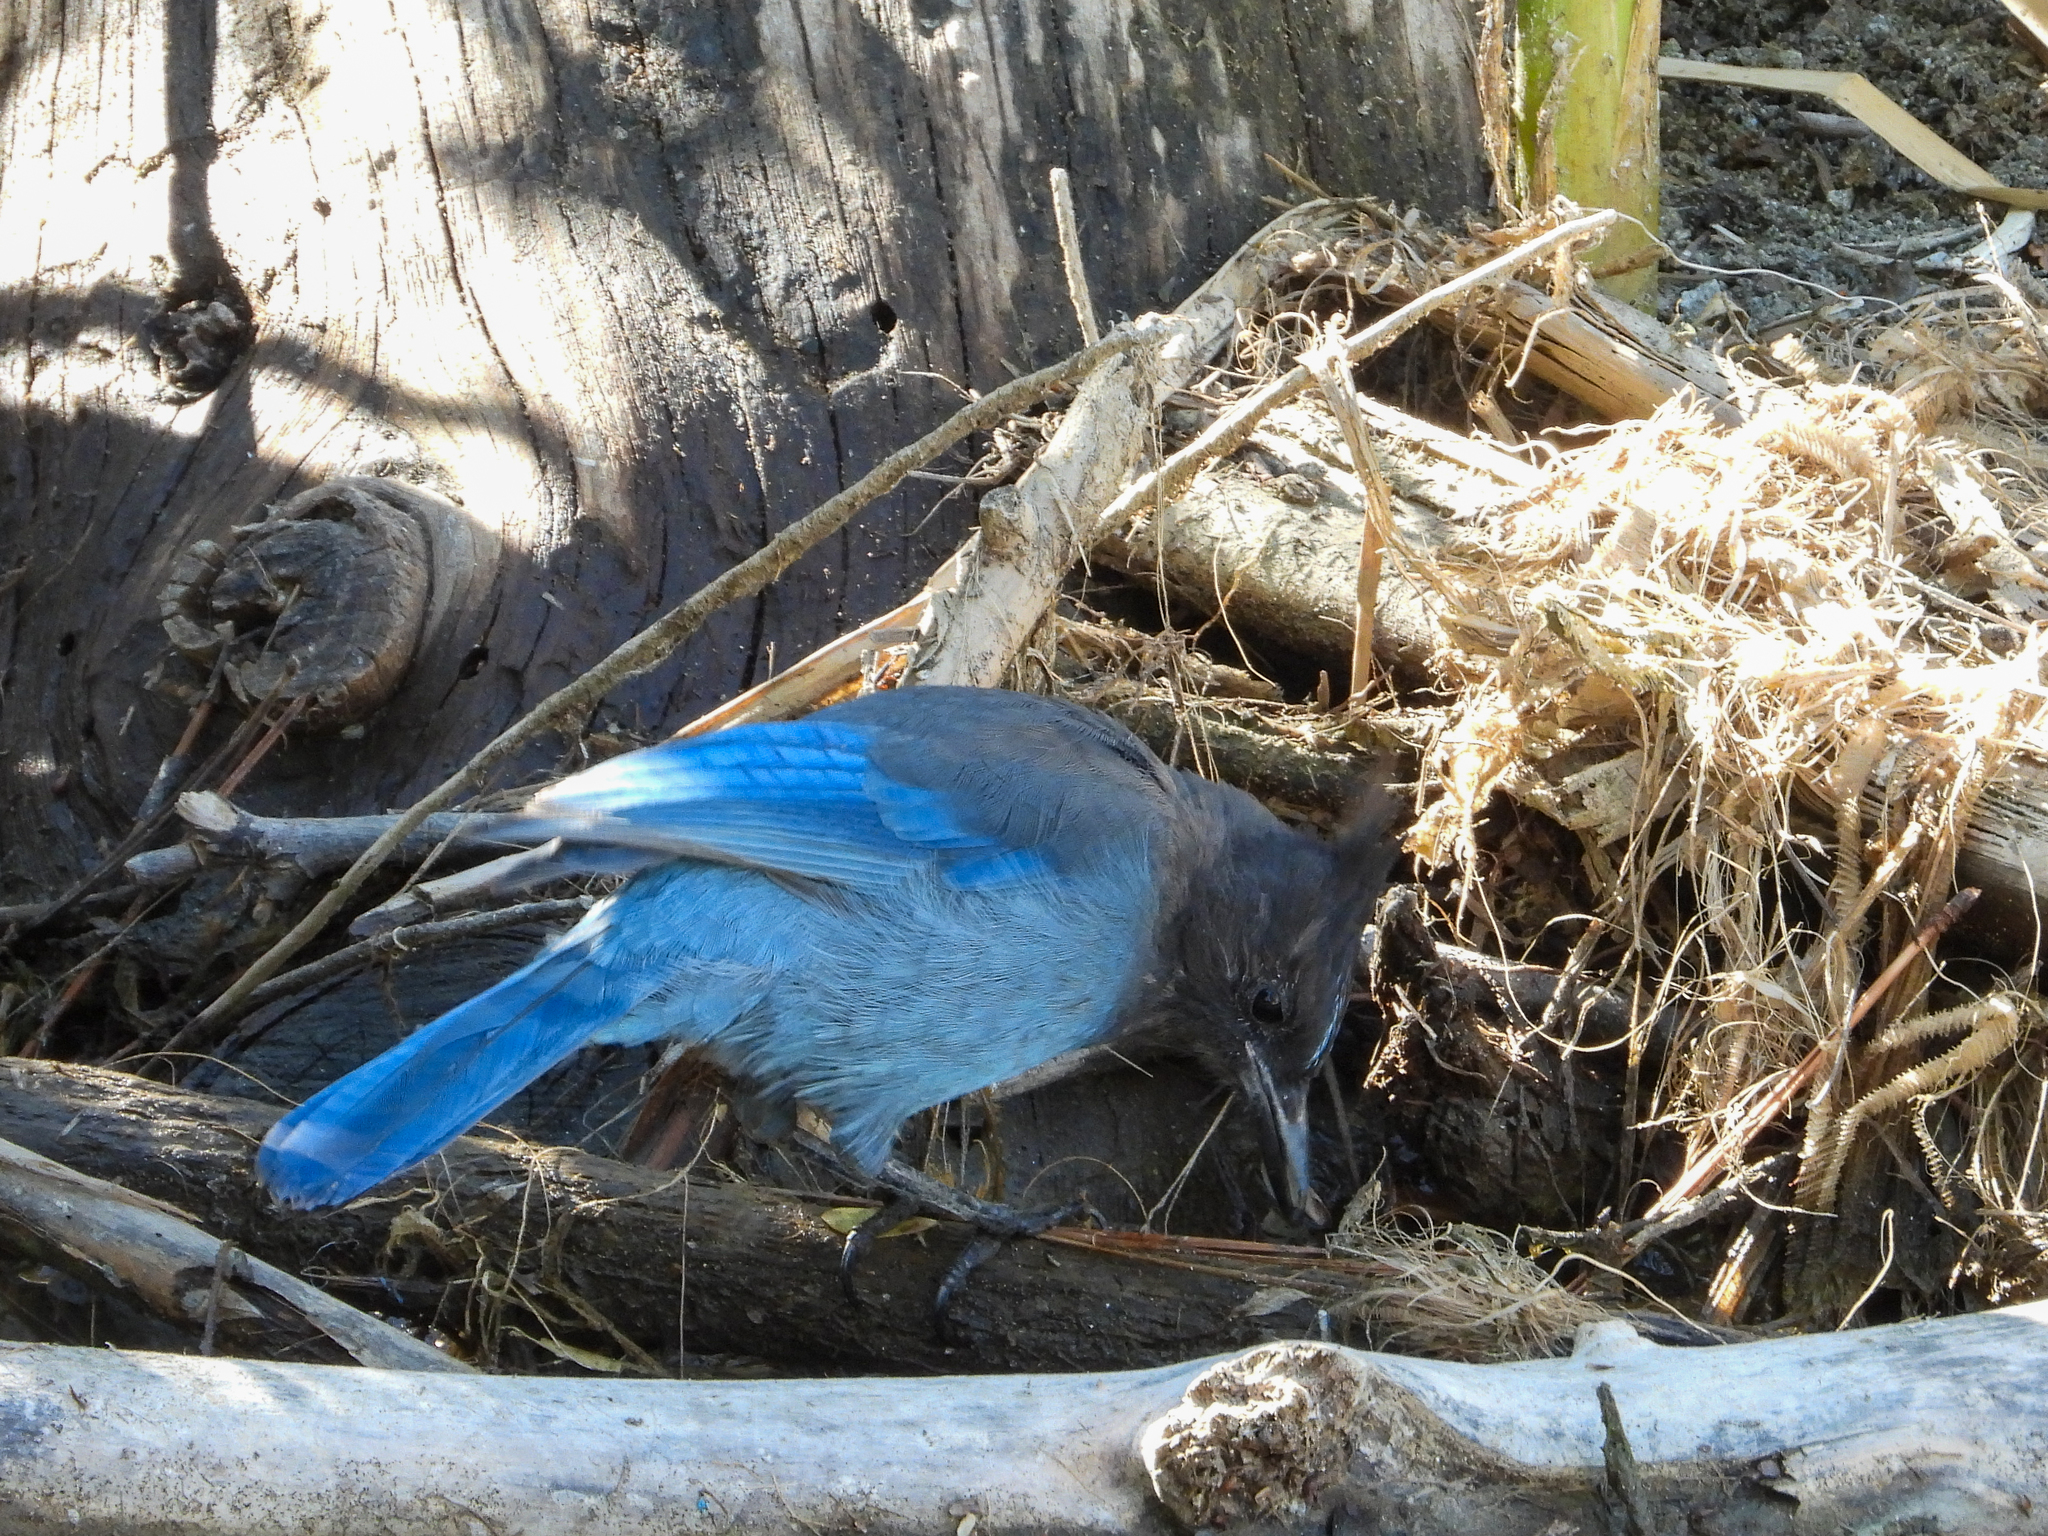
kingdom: Animalia
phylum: Chordata
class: Aves
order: Passeriformes
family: Corvidae
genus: Cyanocitta
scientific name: Cyanocitta stelleri
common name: Steller's jay
